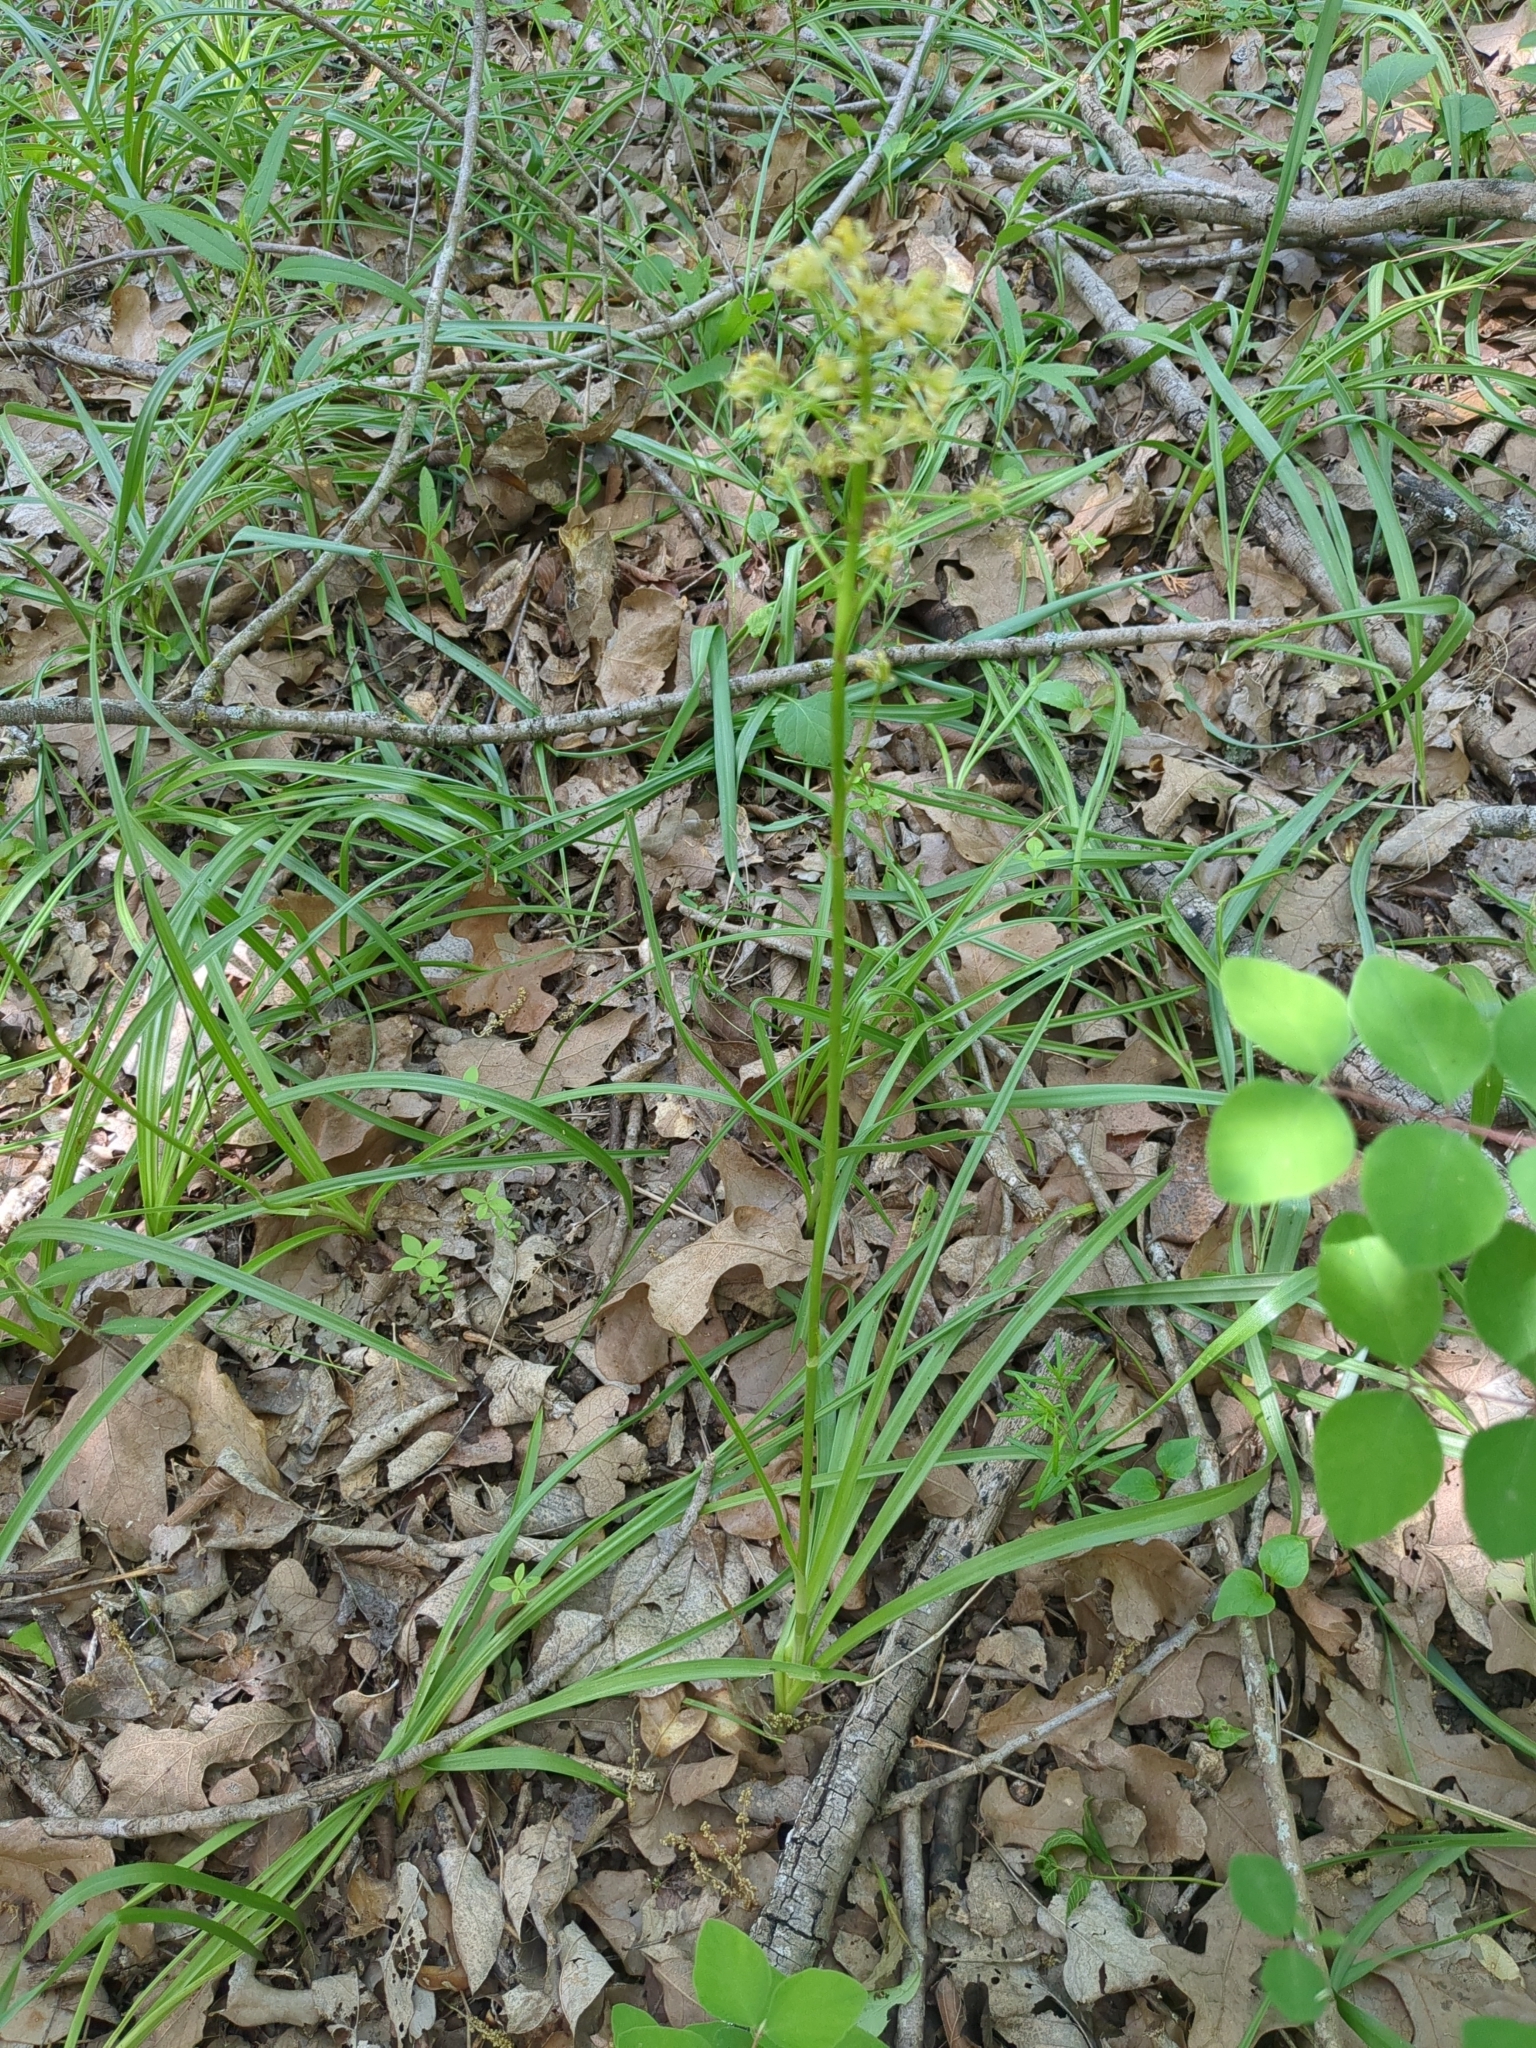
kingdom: Plantae
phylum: Tracheophyta
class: Liliopsida
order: Liliales
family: Melanthiaceae
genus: Toxicoscordion
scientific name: Toxicoscordion nuttallii
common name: Poison sego
